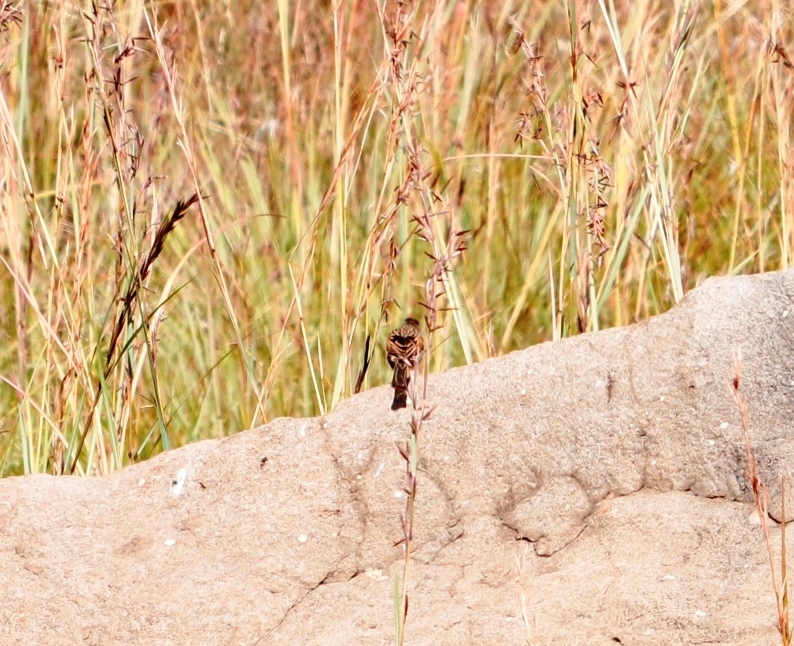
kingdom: Animalia
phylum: Chordata
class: Aves
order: Passeriformes
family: Emberizidae
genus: Emberiza
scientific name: Emberiza capensis
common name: Cape bunting
